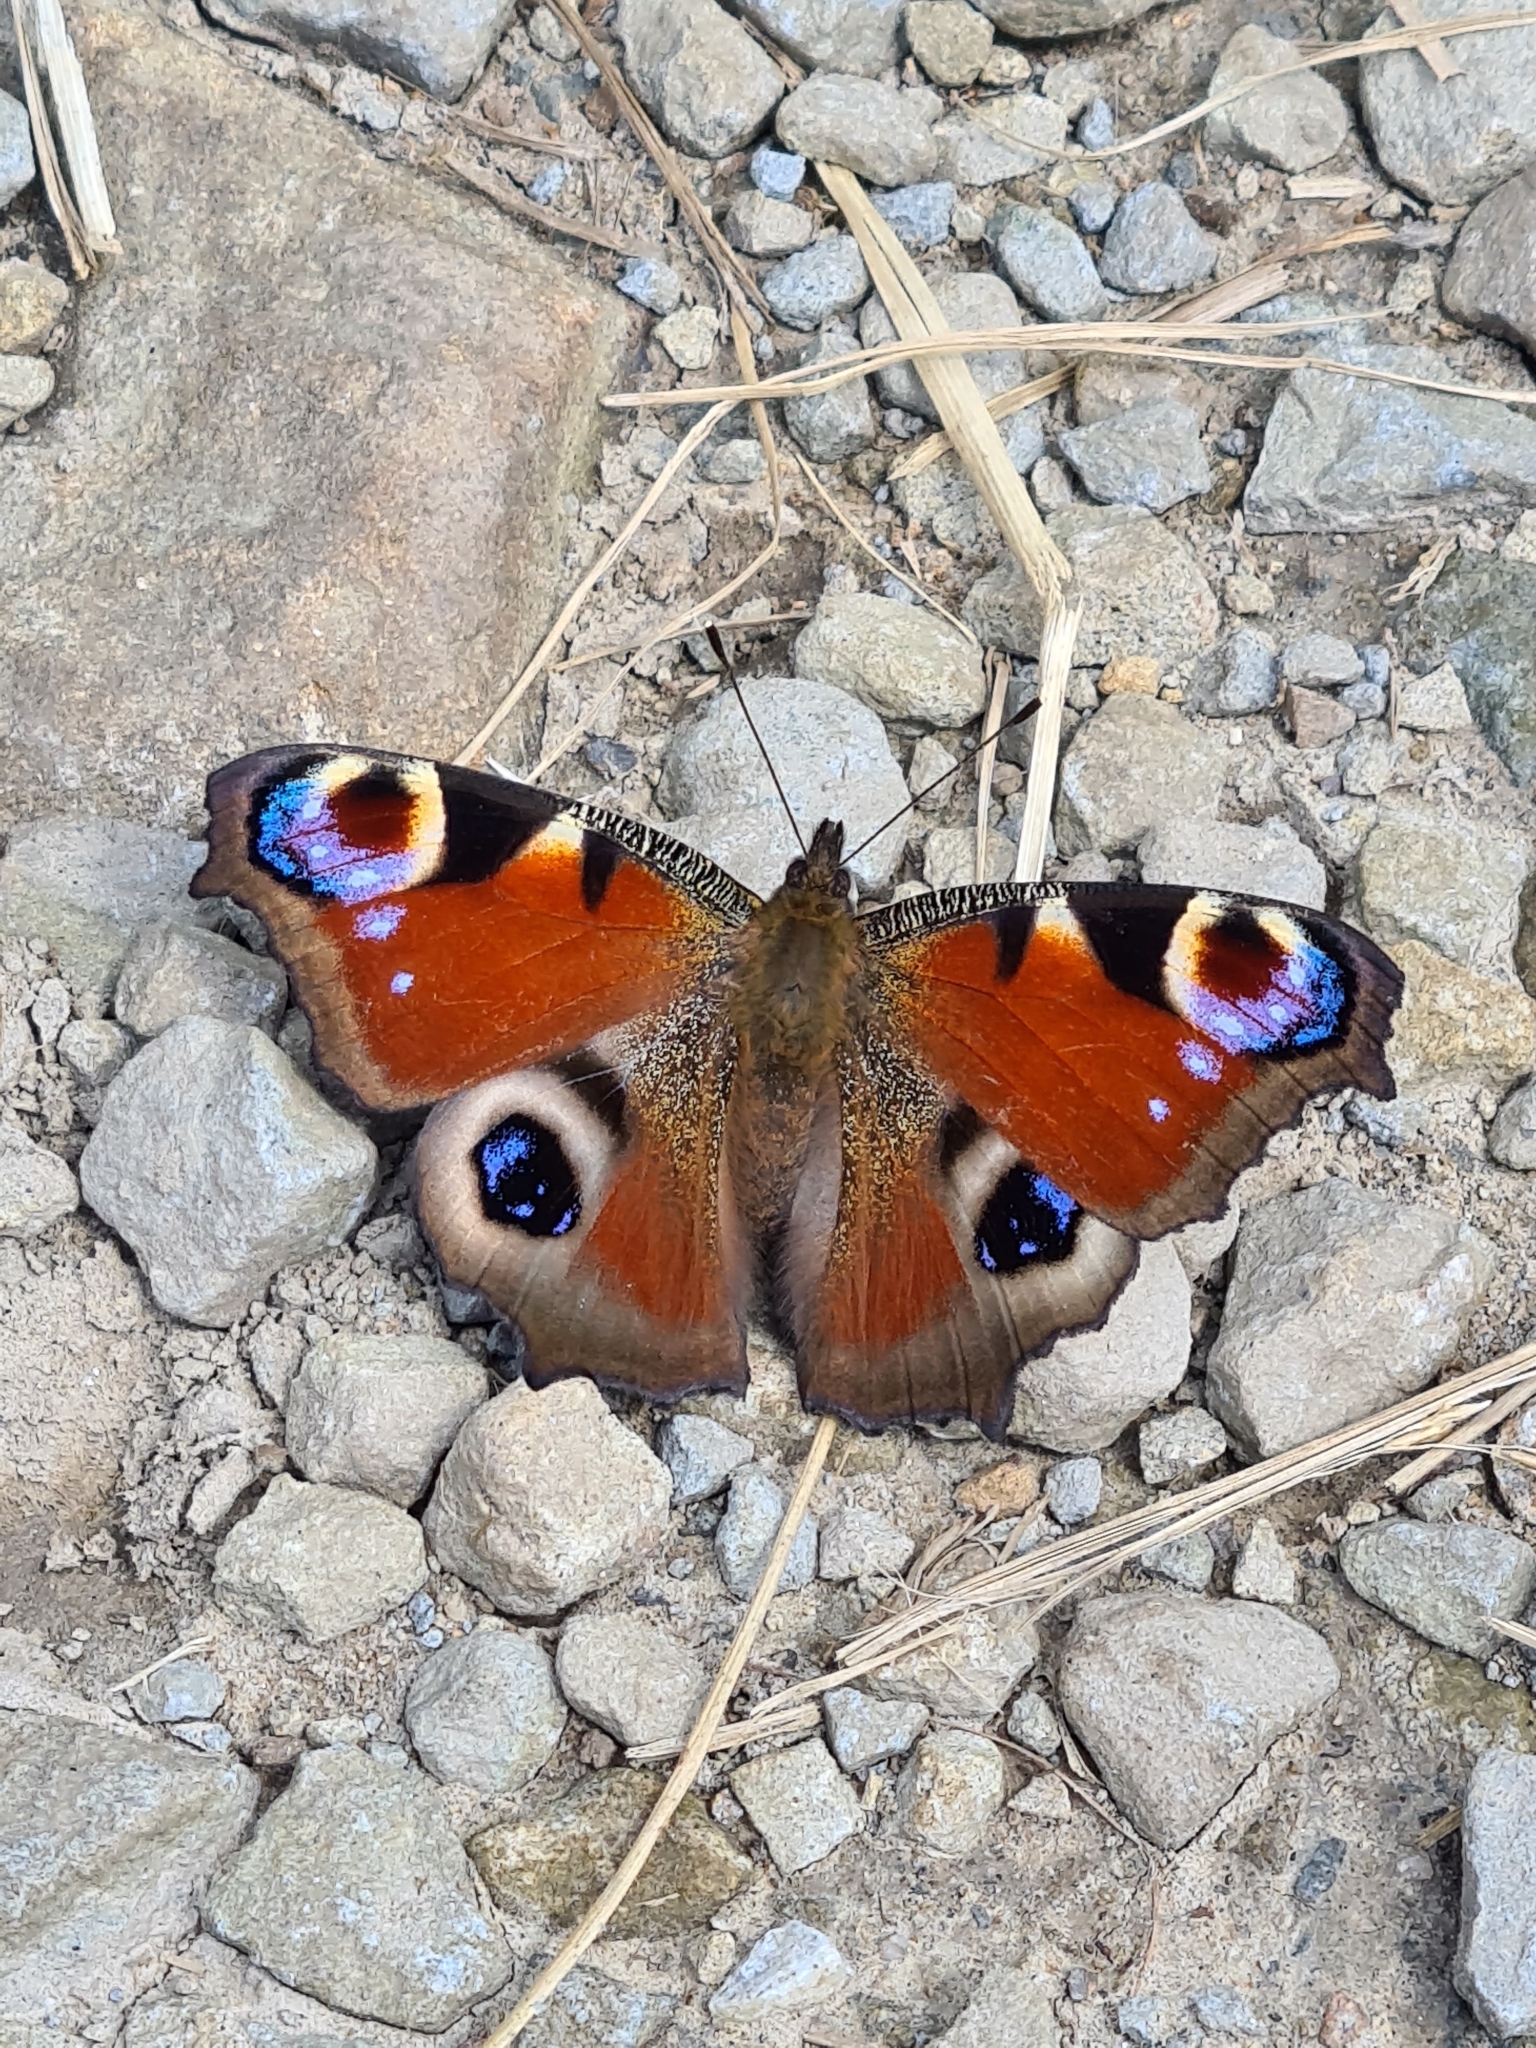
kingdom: Animalia
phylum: Arthropoda
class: Insecta
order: Lepidoptera
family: Nymphalidae
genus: Aglais
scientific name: Aglais io
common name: Peacock
